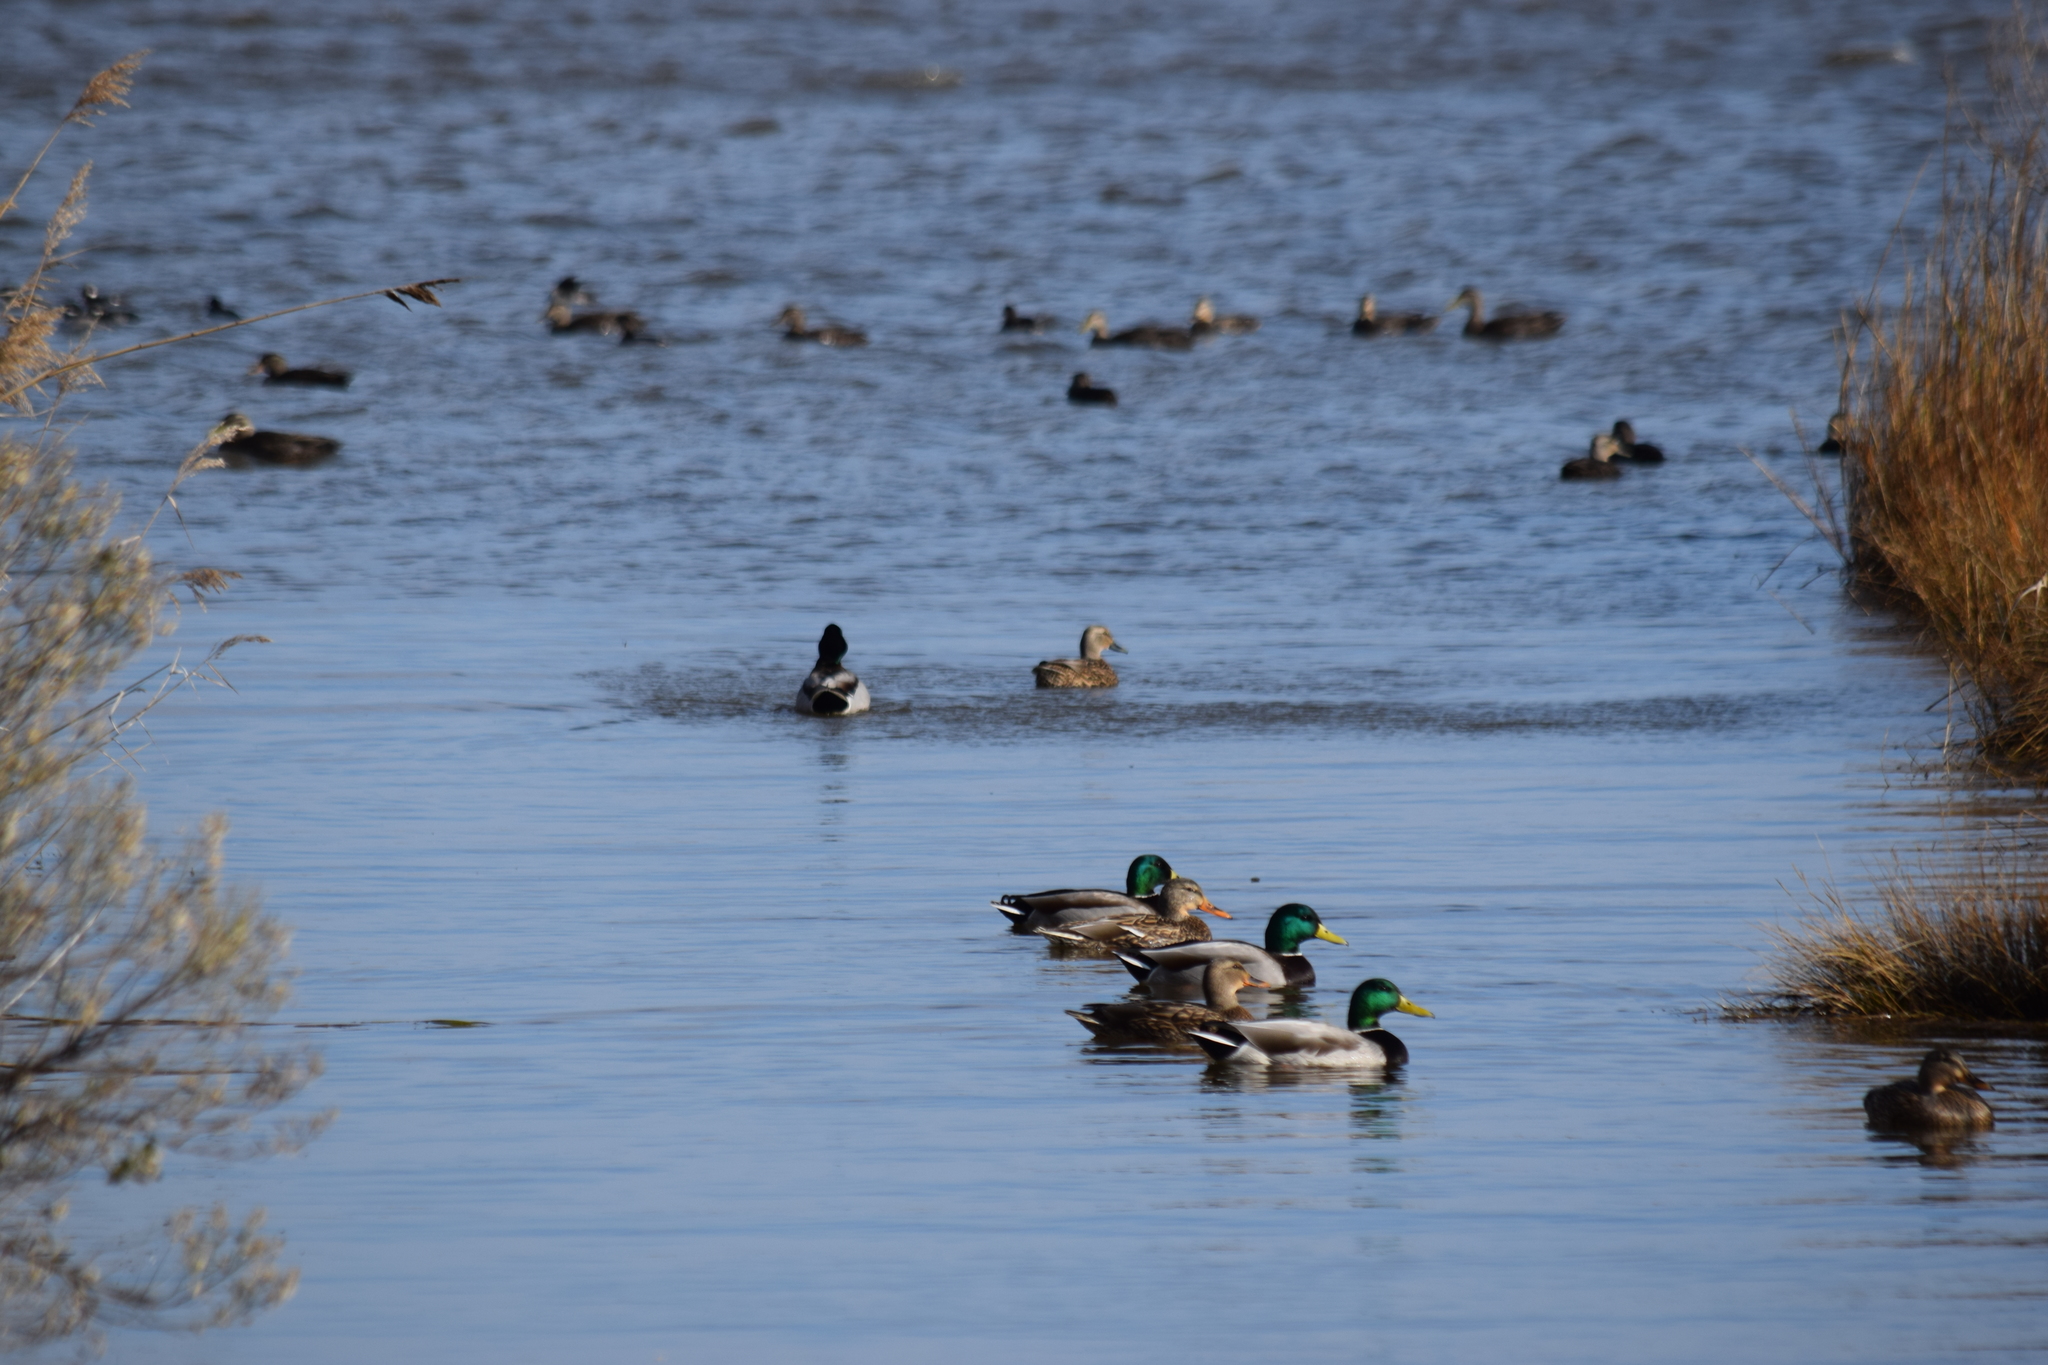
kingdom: Animalia
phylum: Chordata
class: Aves
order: Anseriformes
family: Anatidae
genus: Anas
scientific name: Anas platyrhynchos
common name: Mallard
